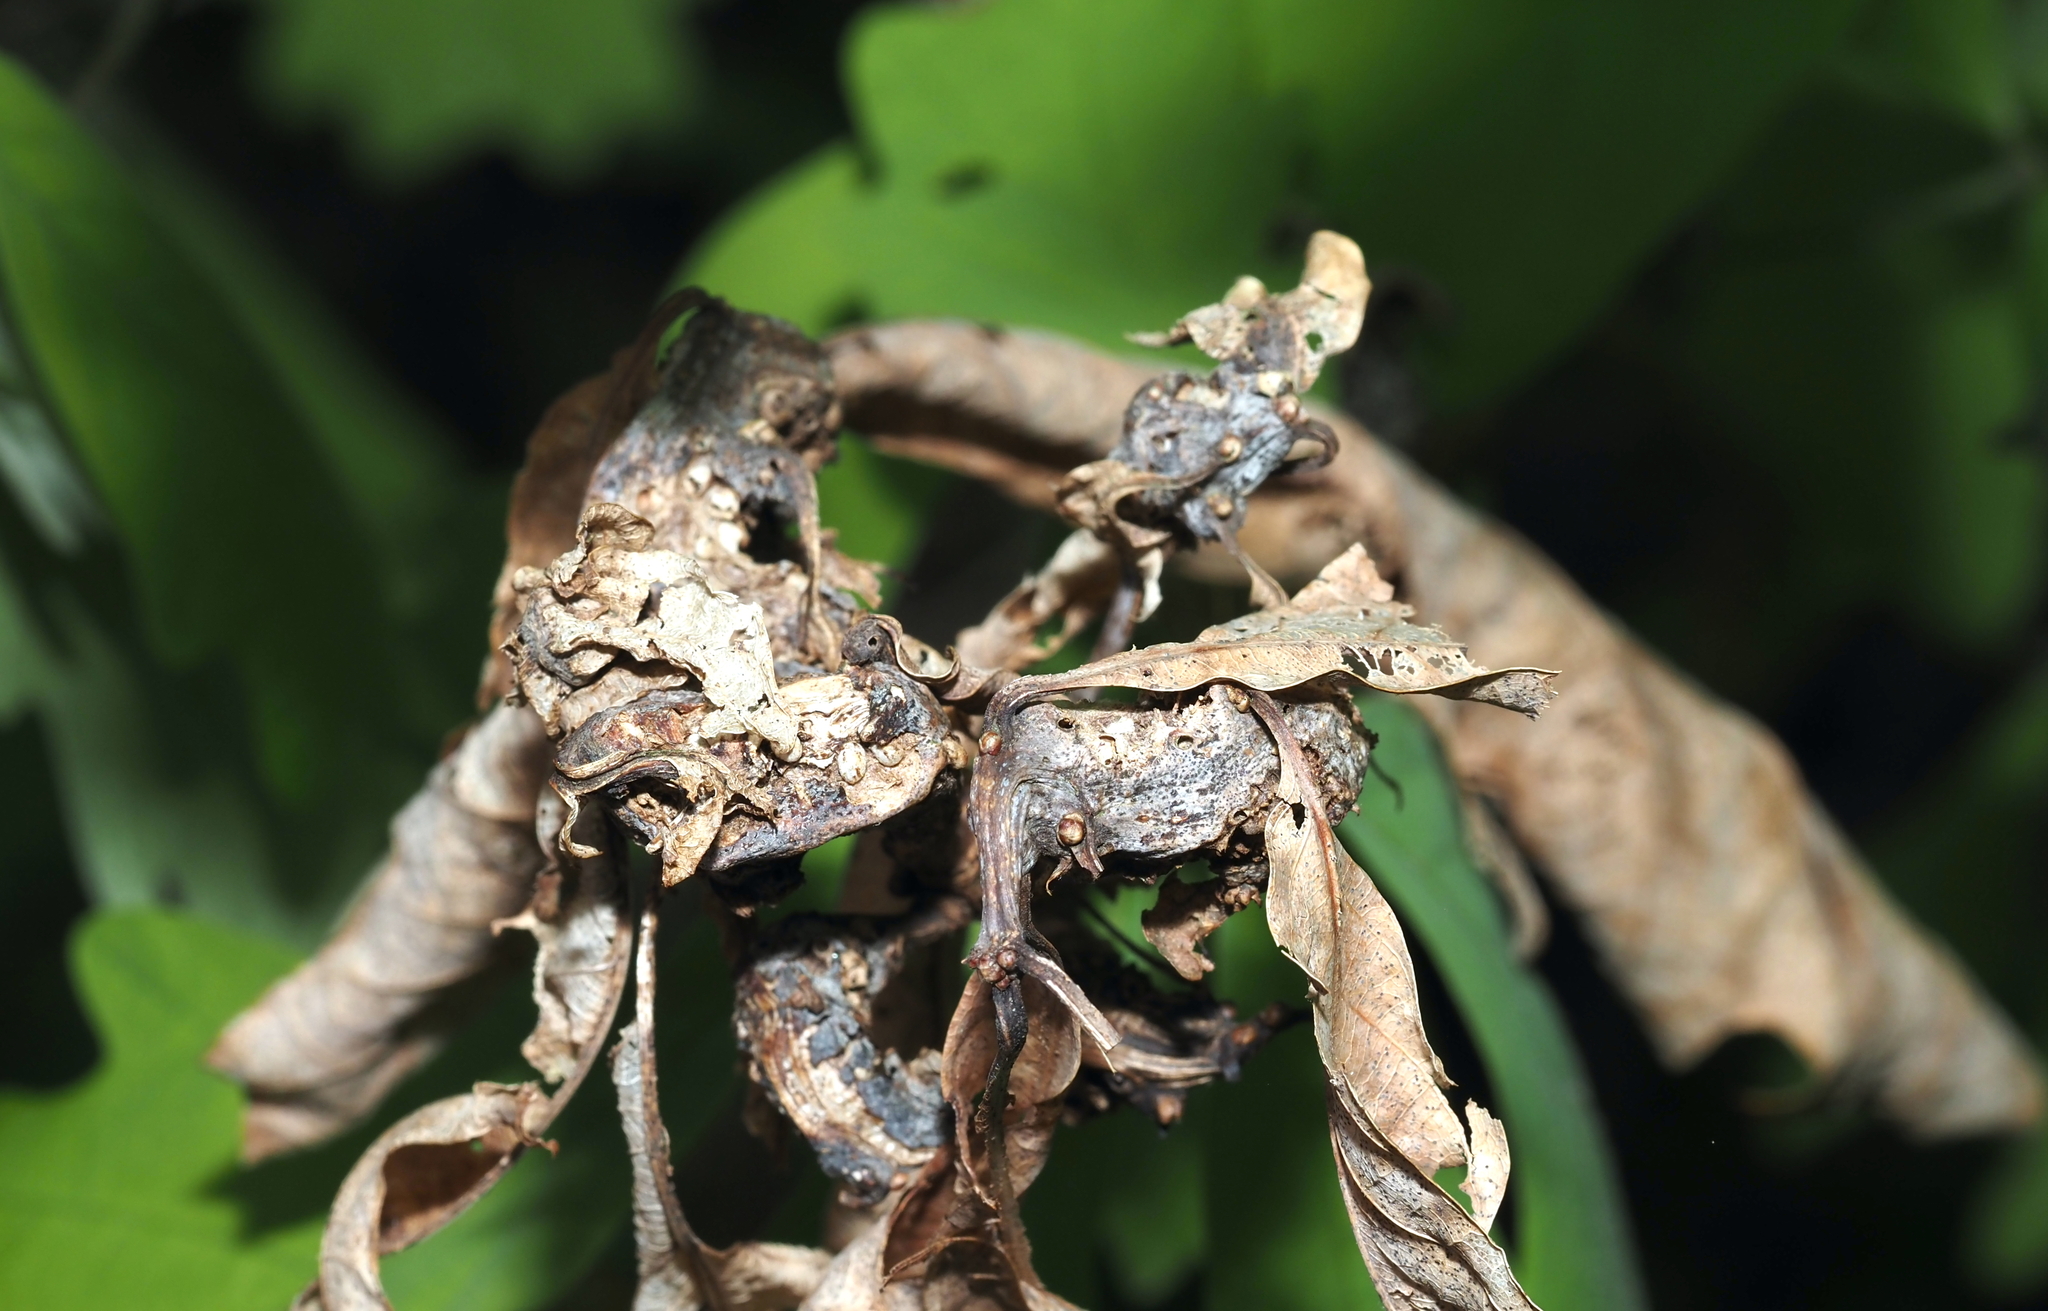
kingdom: Animalia
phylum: Arthropoda
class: Insecta
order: Hymenoptera
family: Cynipidae
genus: Neuroterus
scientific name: Neuroterus quercusbaccarum
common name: Common spangle gall
